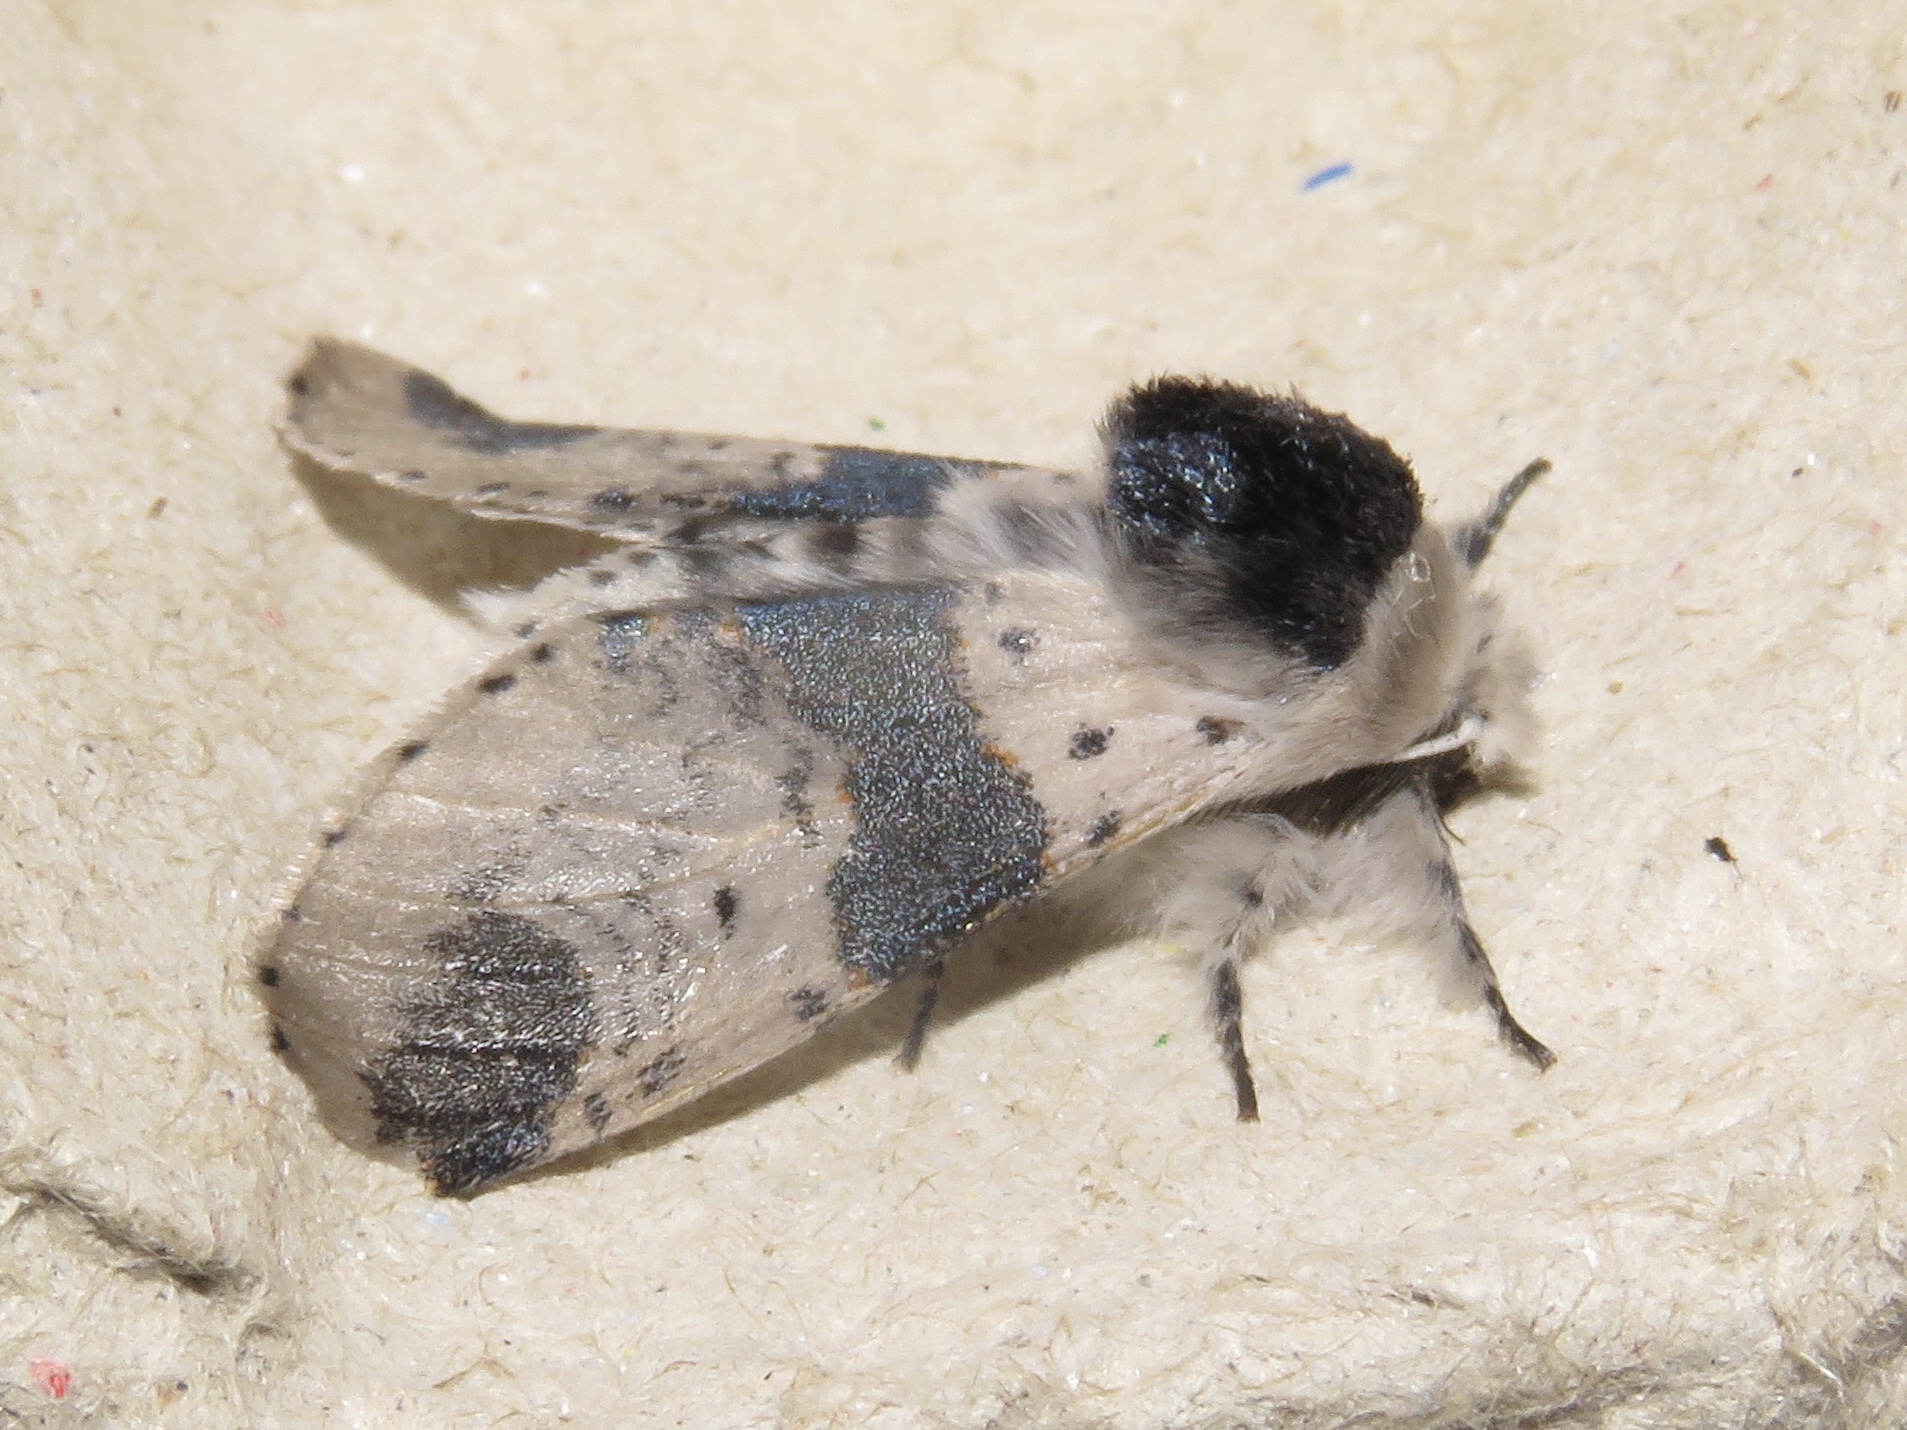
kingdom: Animalia
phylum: Arthropoda
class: Insecta
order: Lepidoptera
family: Notodontidae
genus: Furcula
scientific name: Furcula modesta
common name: Modest furcula moth
